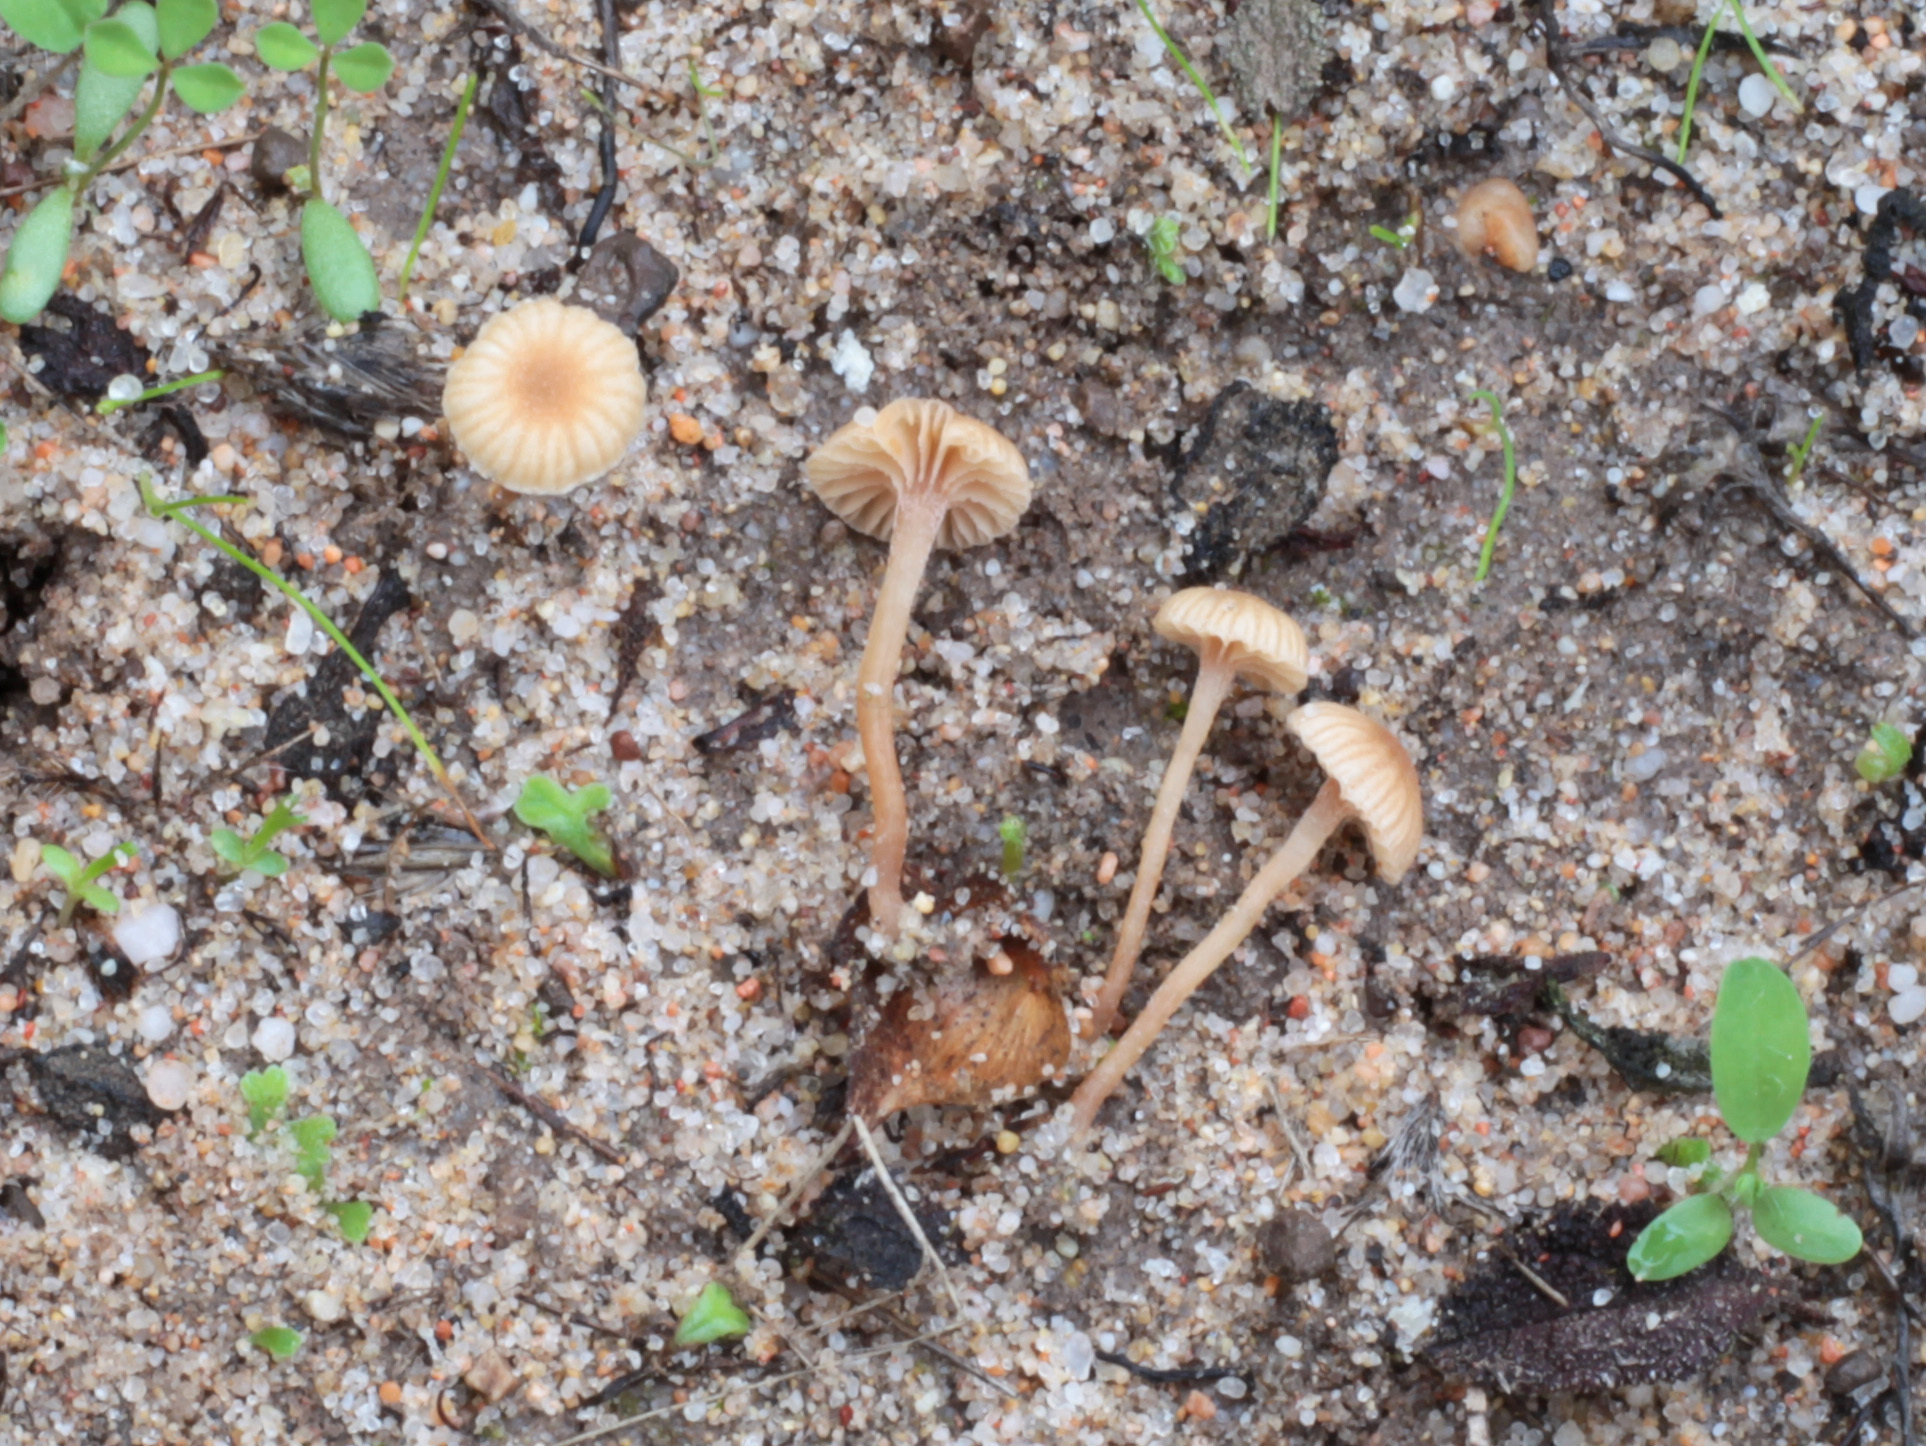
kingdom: Fungi
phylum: Basidiomycota
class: Agaricomycetes
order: Agaricales
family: Tubariaceae
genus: Tubaria
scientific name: Tubaria cistophila
